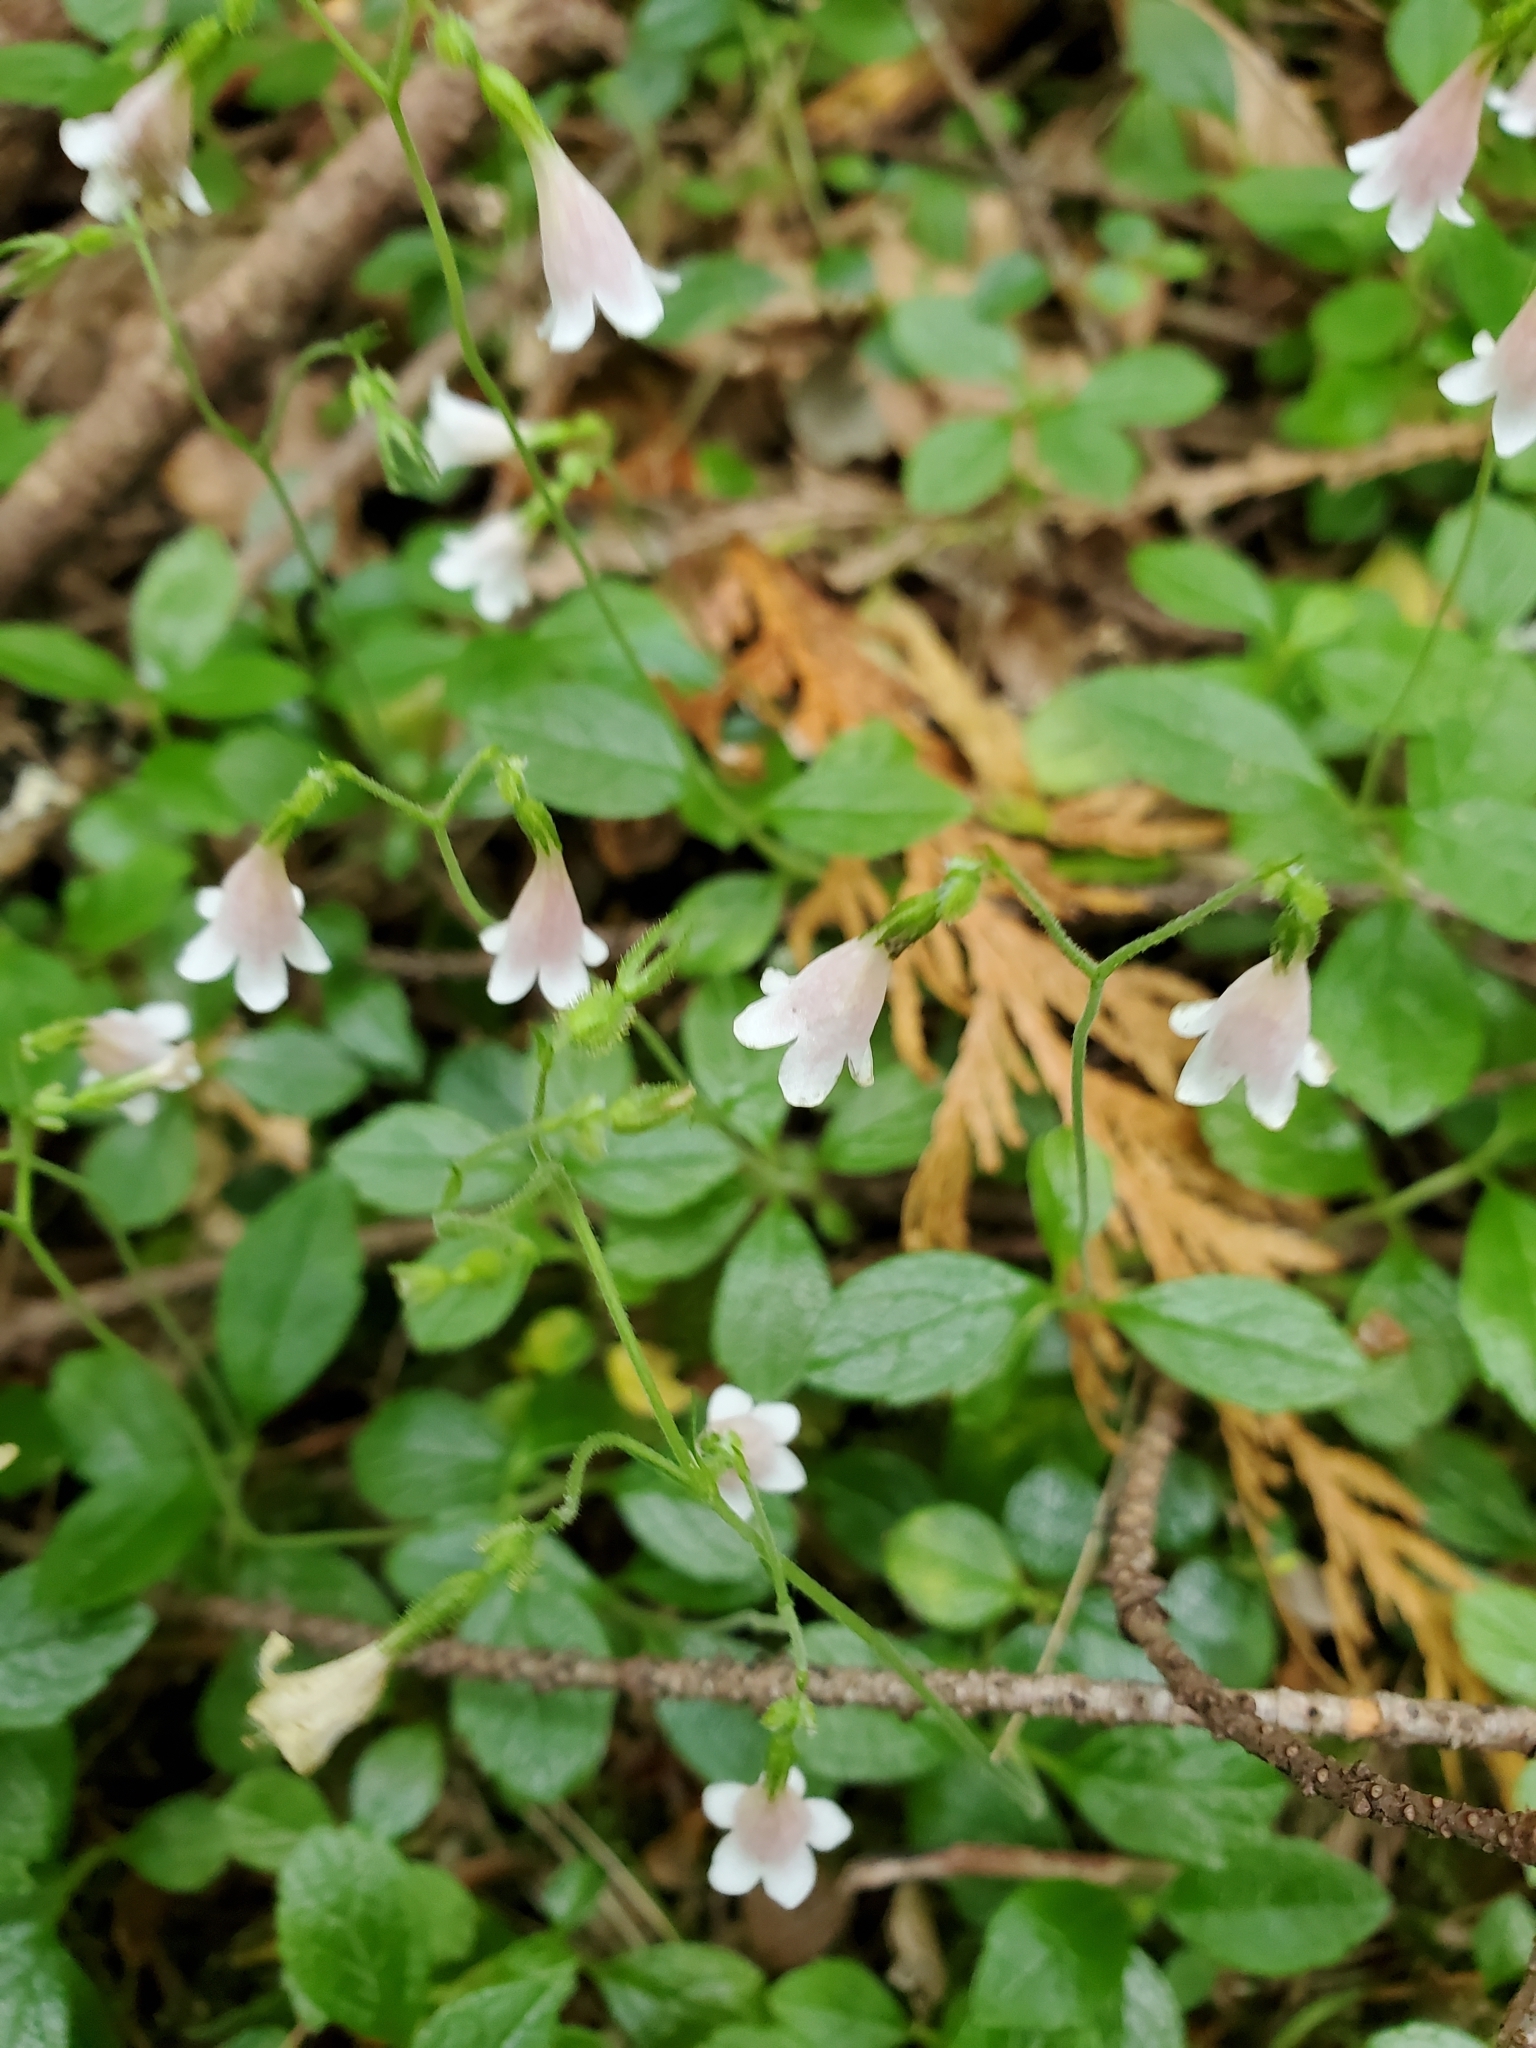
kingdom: Plantae
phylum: Tracheophyta
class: Magnoliopsida
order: Dipsacales
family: Caprifoliaceae
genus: Linnaea
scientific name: Linnaea borealis
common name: Twinflower
